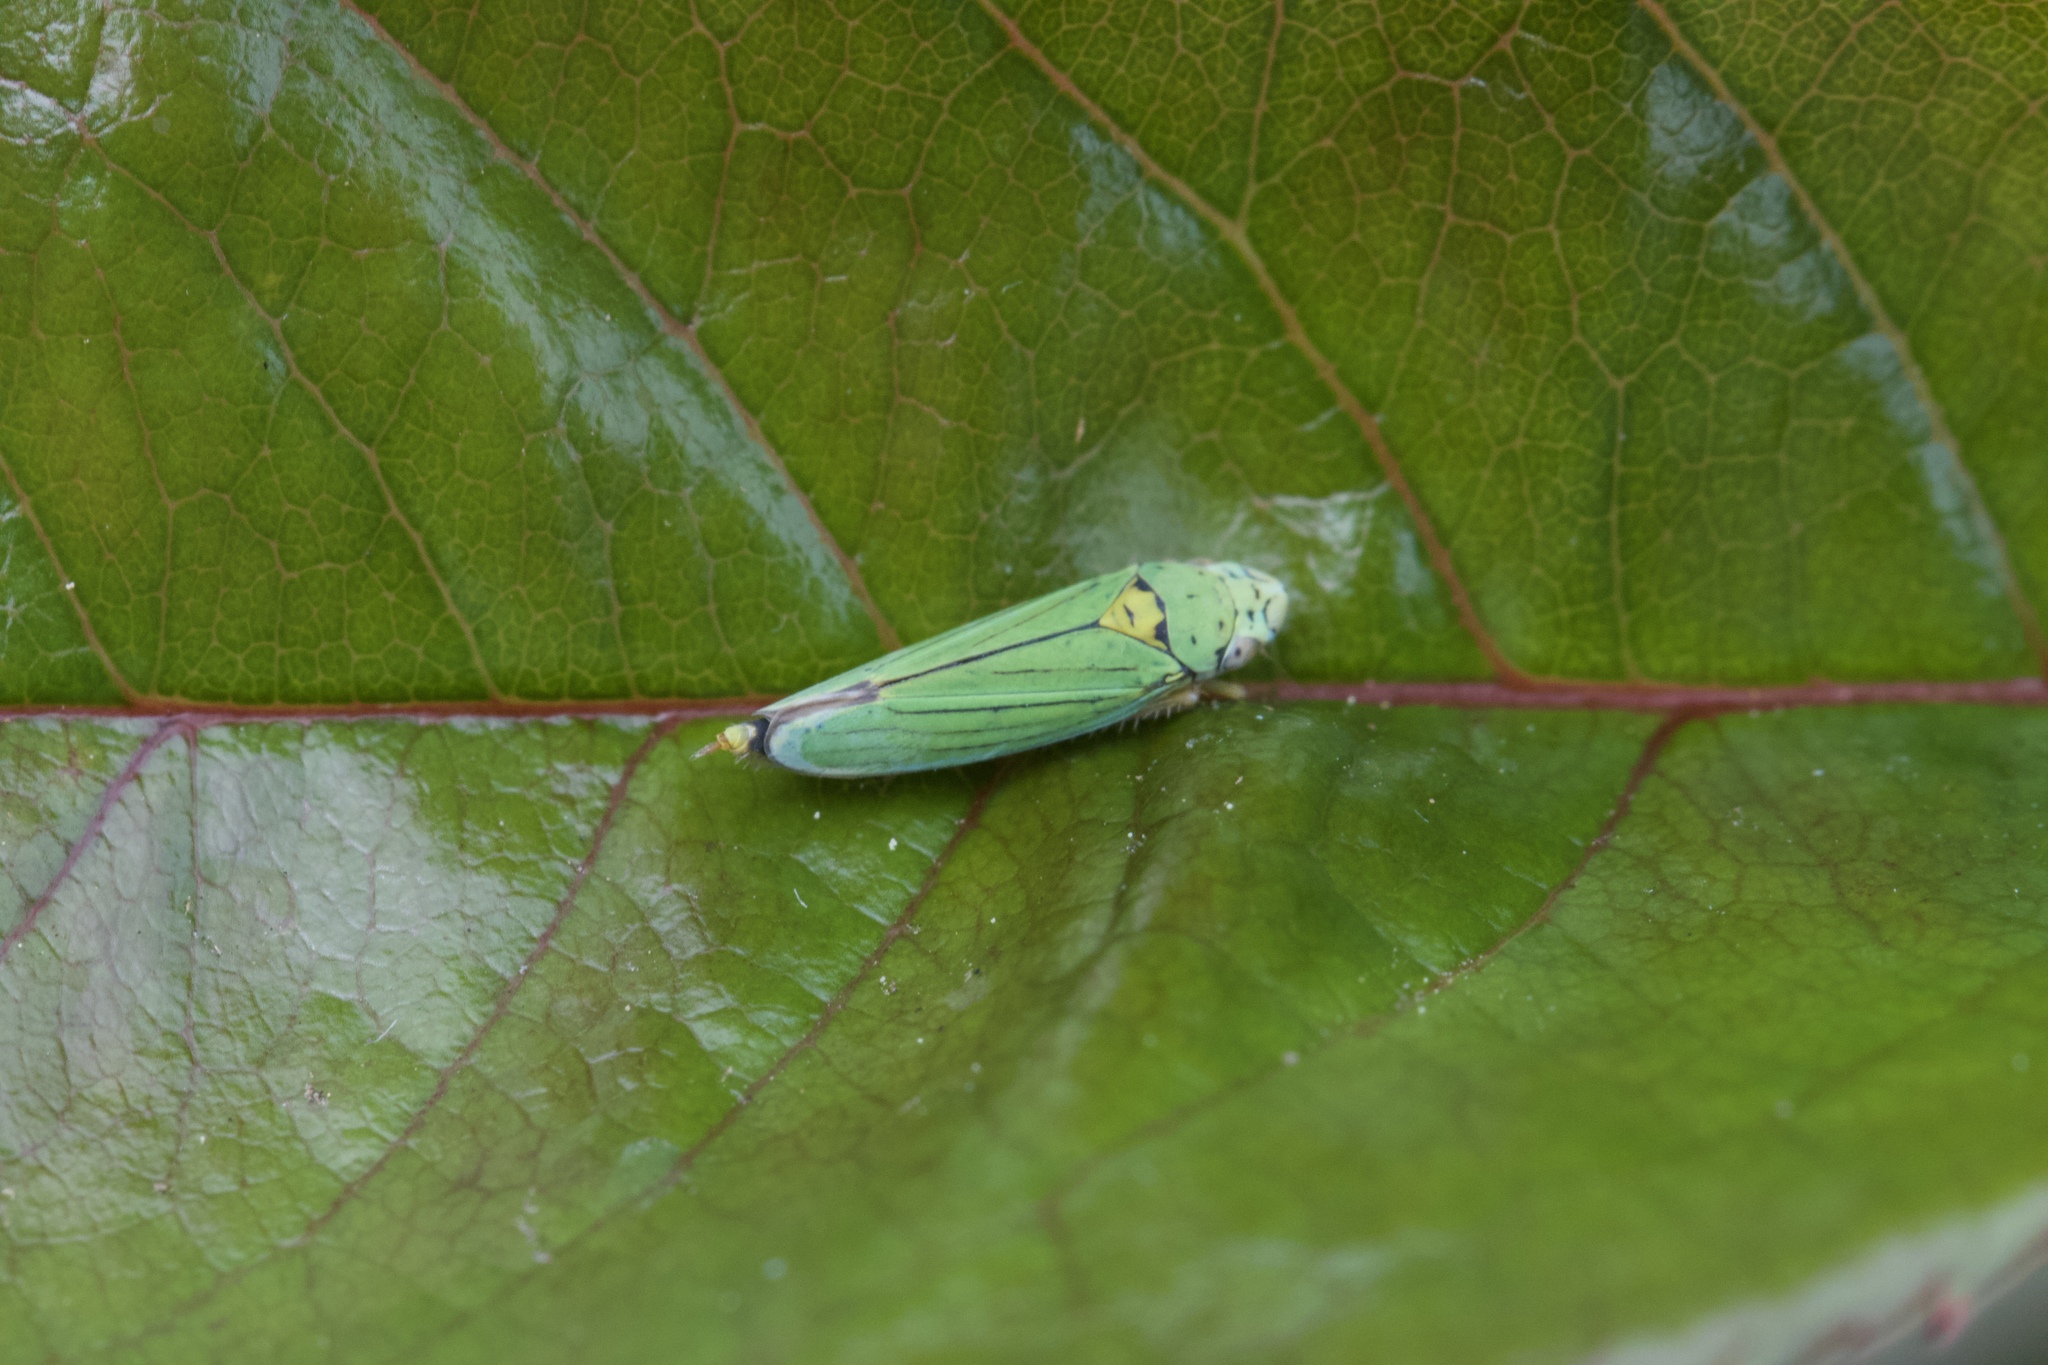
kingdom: Animalia
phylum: Arthropoda
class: Insecta
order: Hemiptera
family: Cicadellidae
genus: Graphocephala
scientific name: Graphocephala atropunctata
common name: Blue-green sharpshooter
